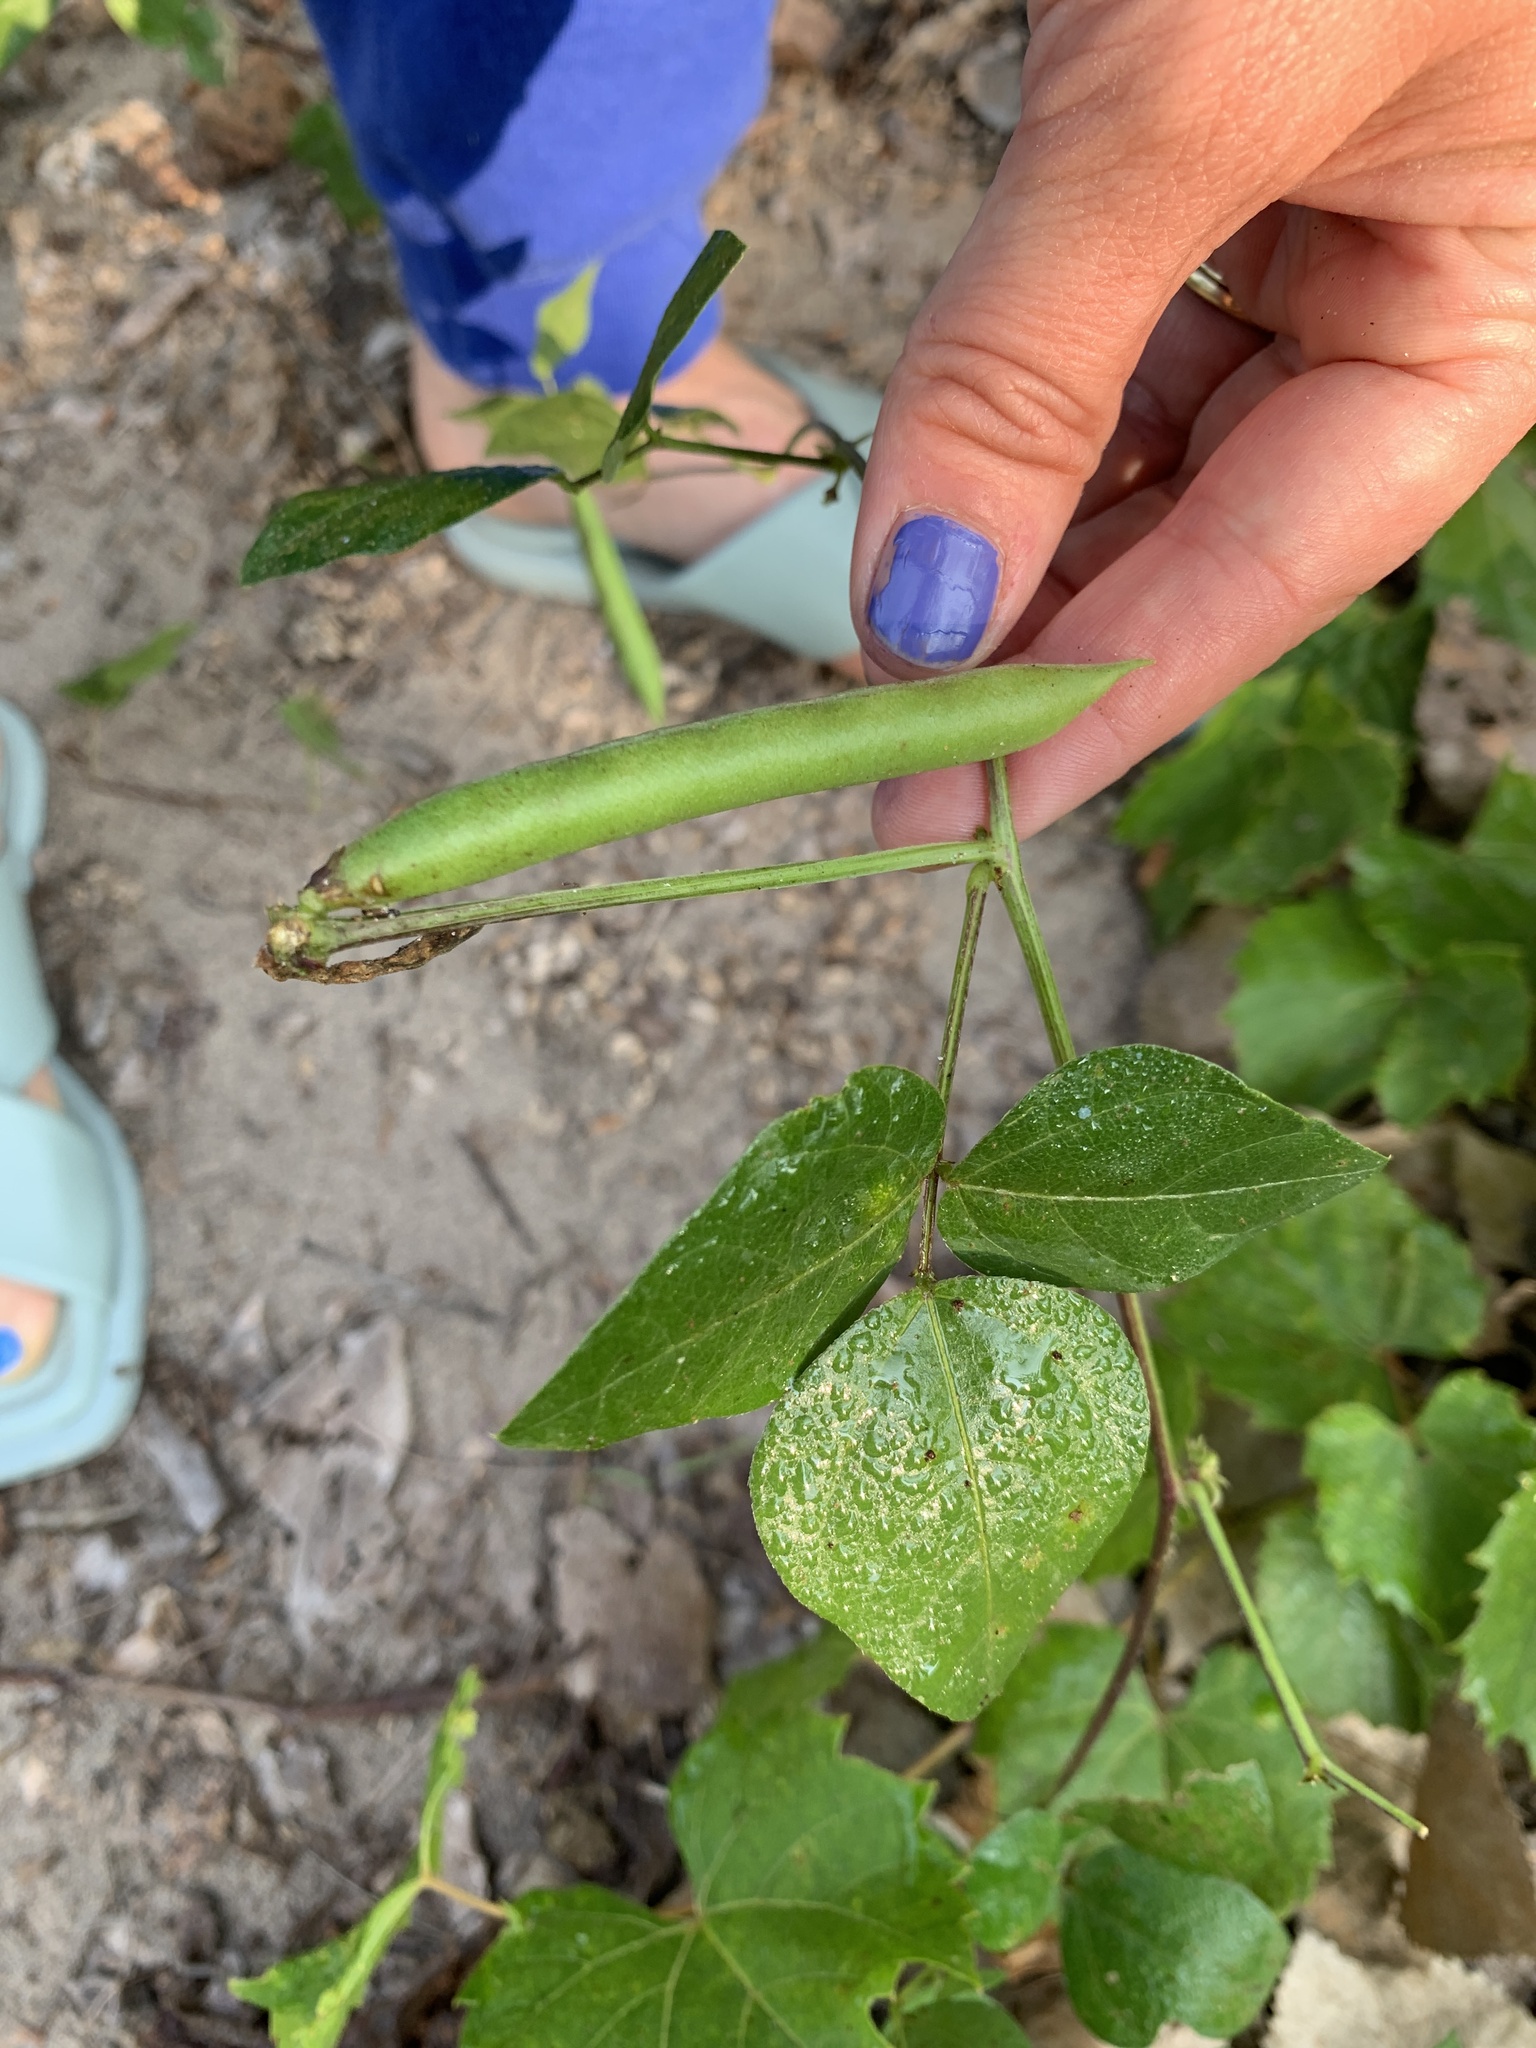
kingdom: Plantae
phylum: Tracheophyta
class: Magnoliopsida
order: Fabales
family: Fabaceae
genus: Strophostyles
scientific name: Strophostyles helvola
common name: Trailing wild bean
